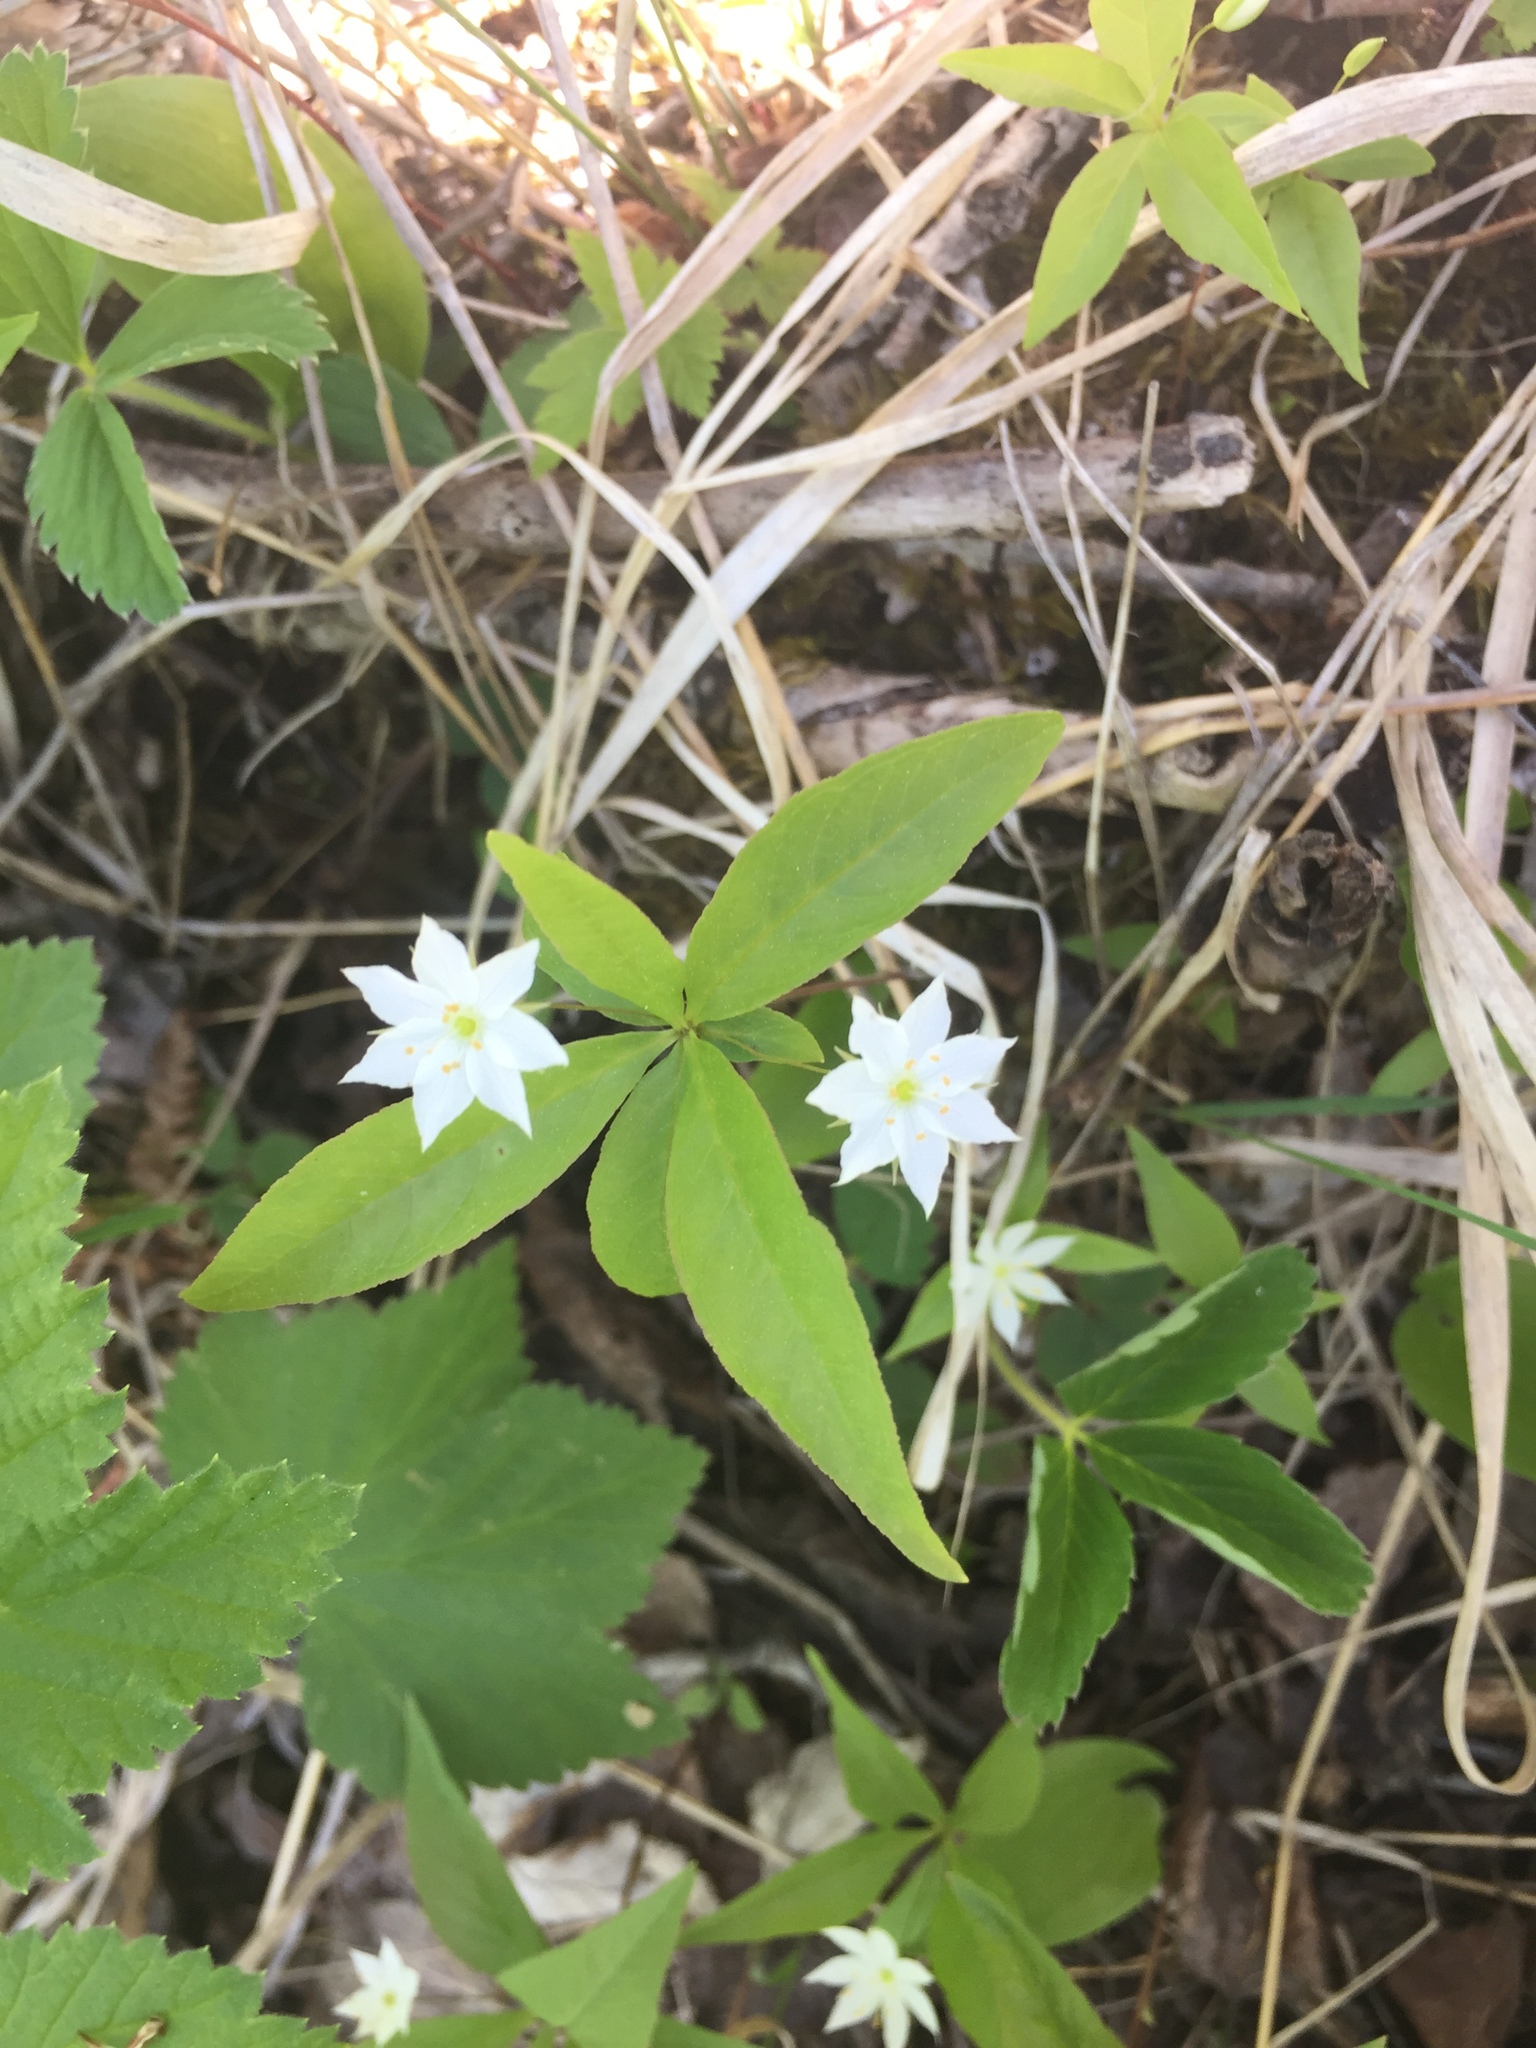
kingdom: Plantae
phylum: Tracheophyta
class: Magnoliopsida
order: Ericales
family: Primulaceae
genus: Lysimachia
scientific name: Lysimachia borealis
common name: American starflower
